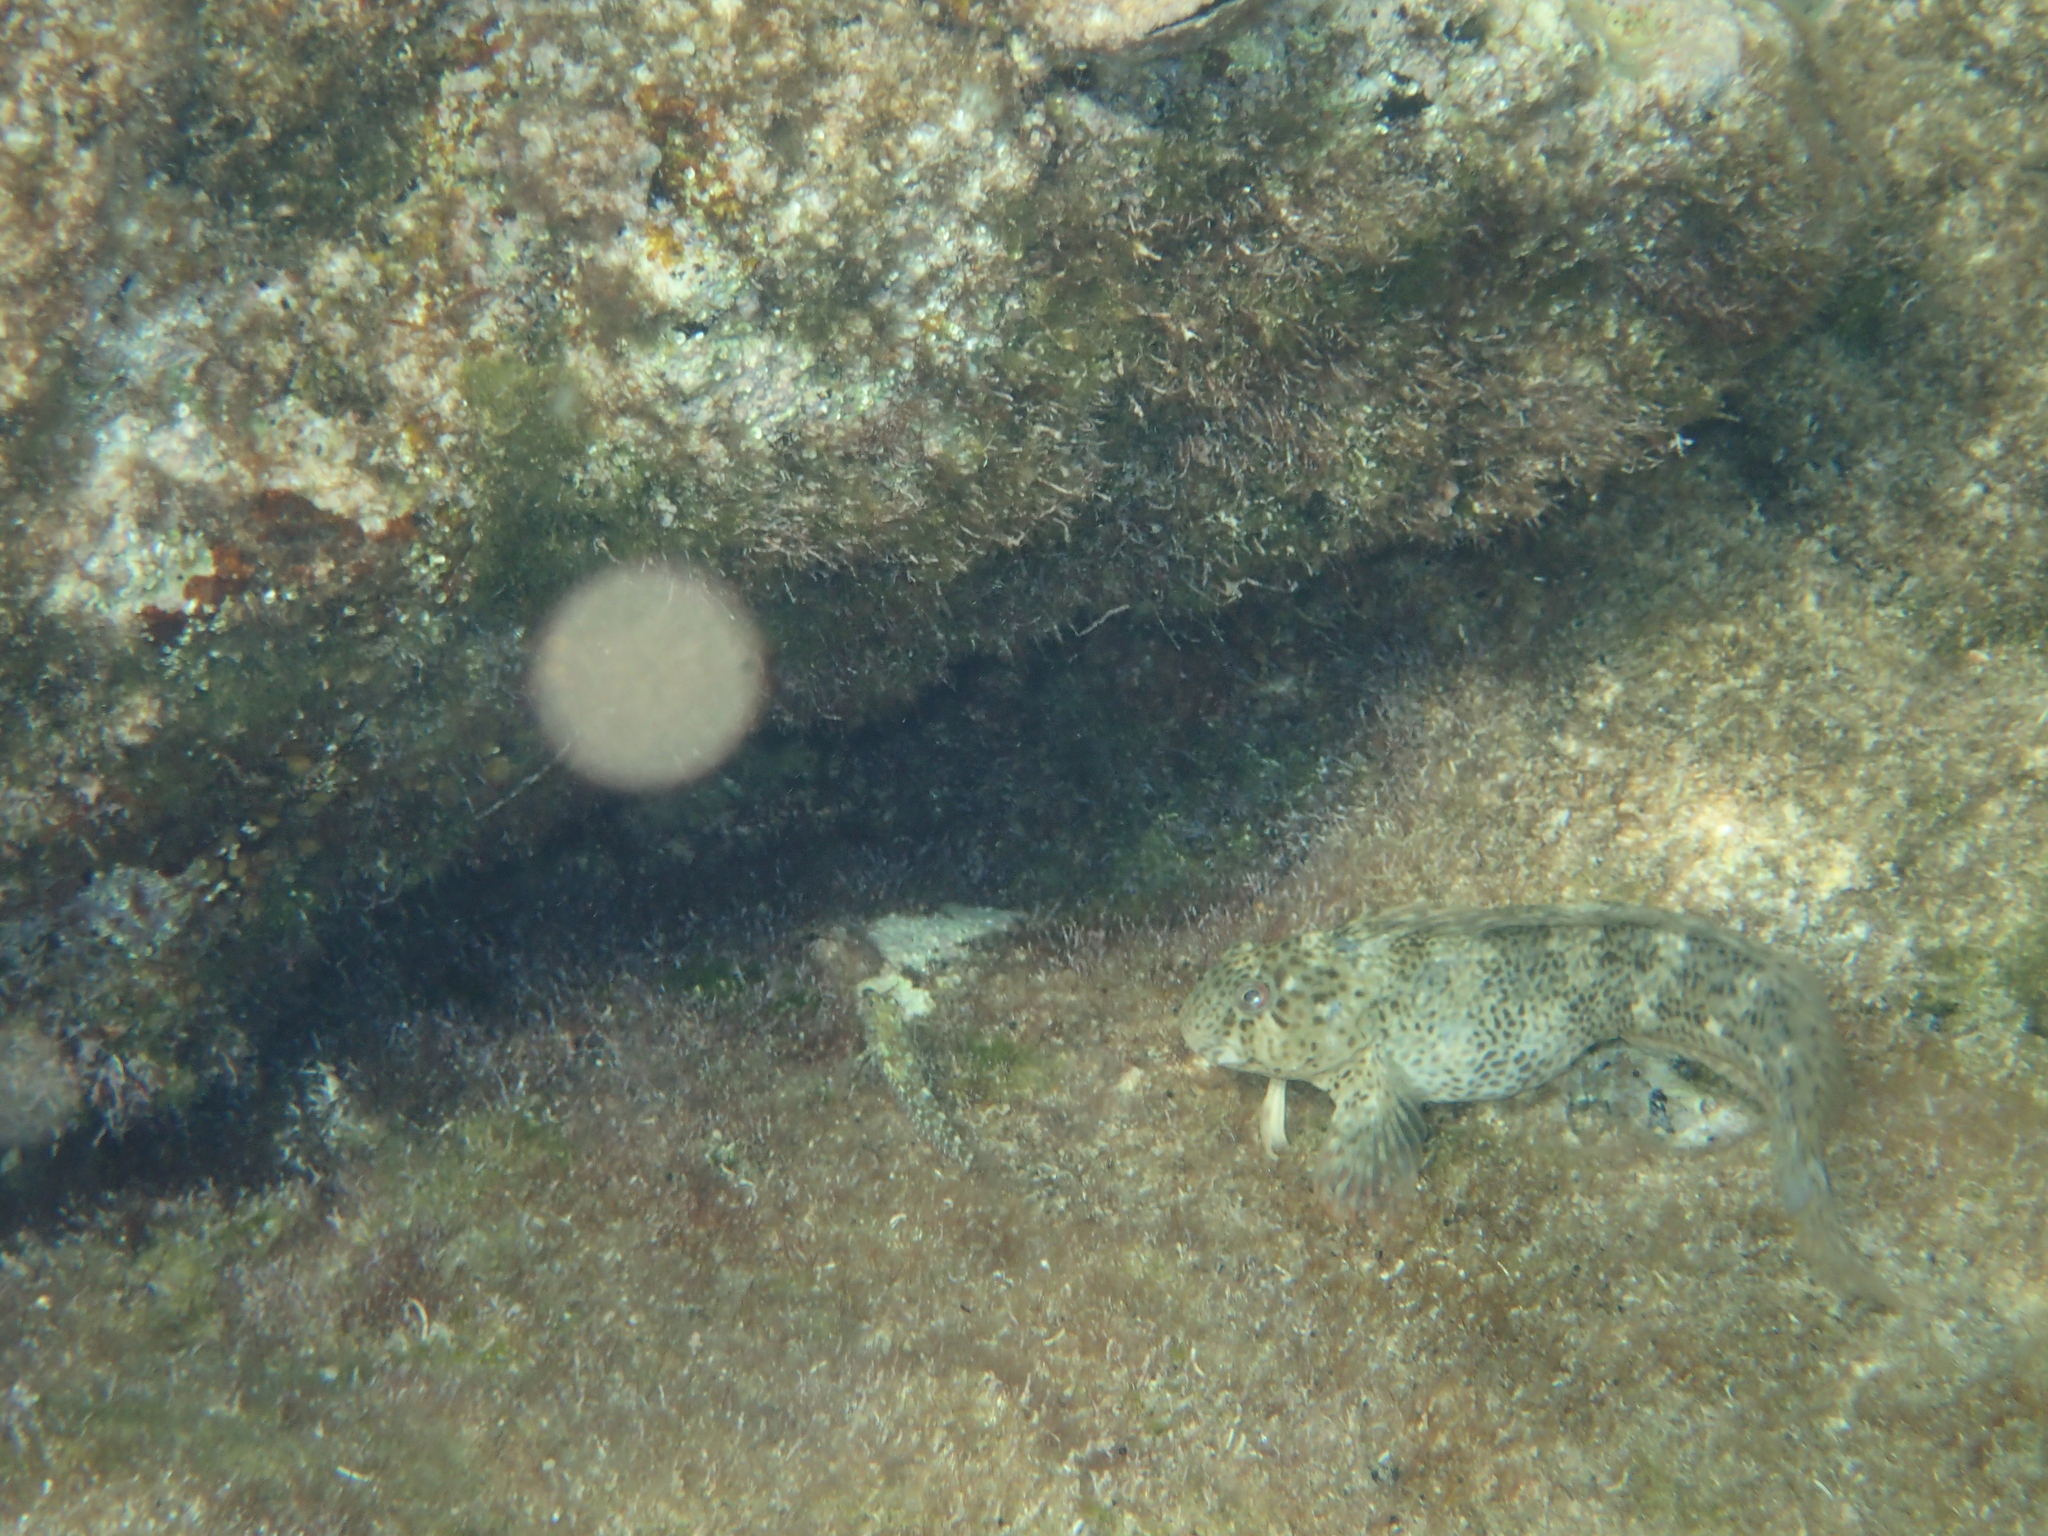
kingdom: Animalia
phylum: Chordata
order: Perciformes
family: Blenniidae
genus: Parablennius
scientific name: Parablennius sanguinolentus
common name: Black sea blenny
